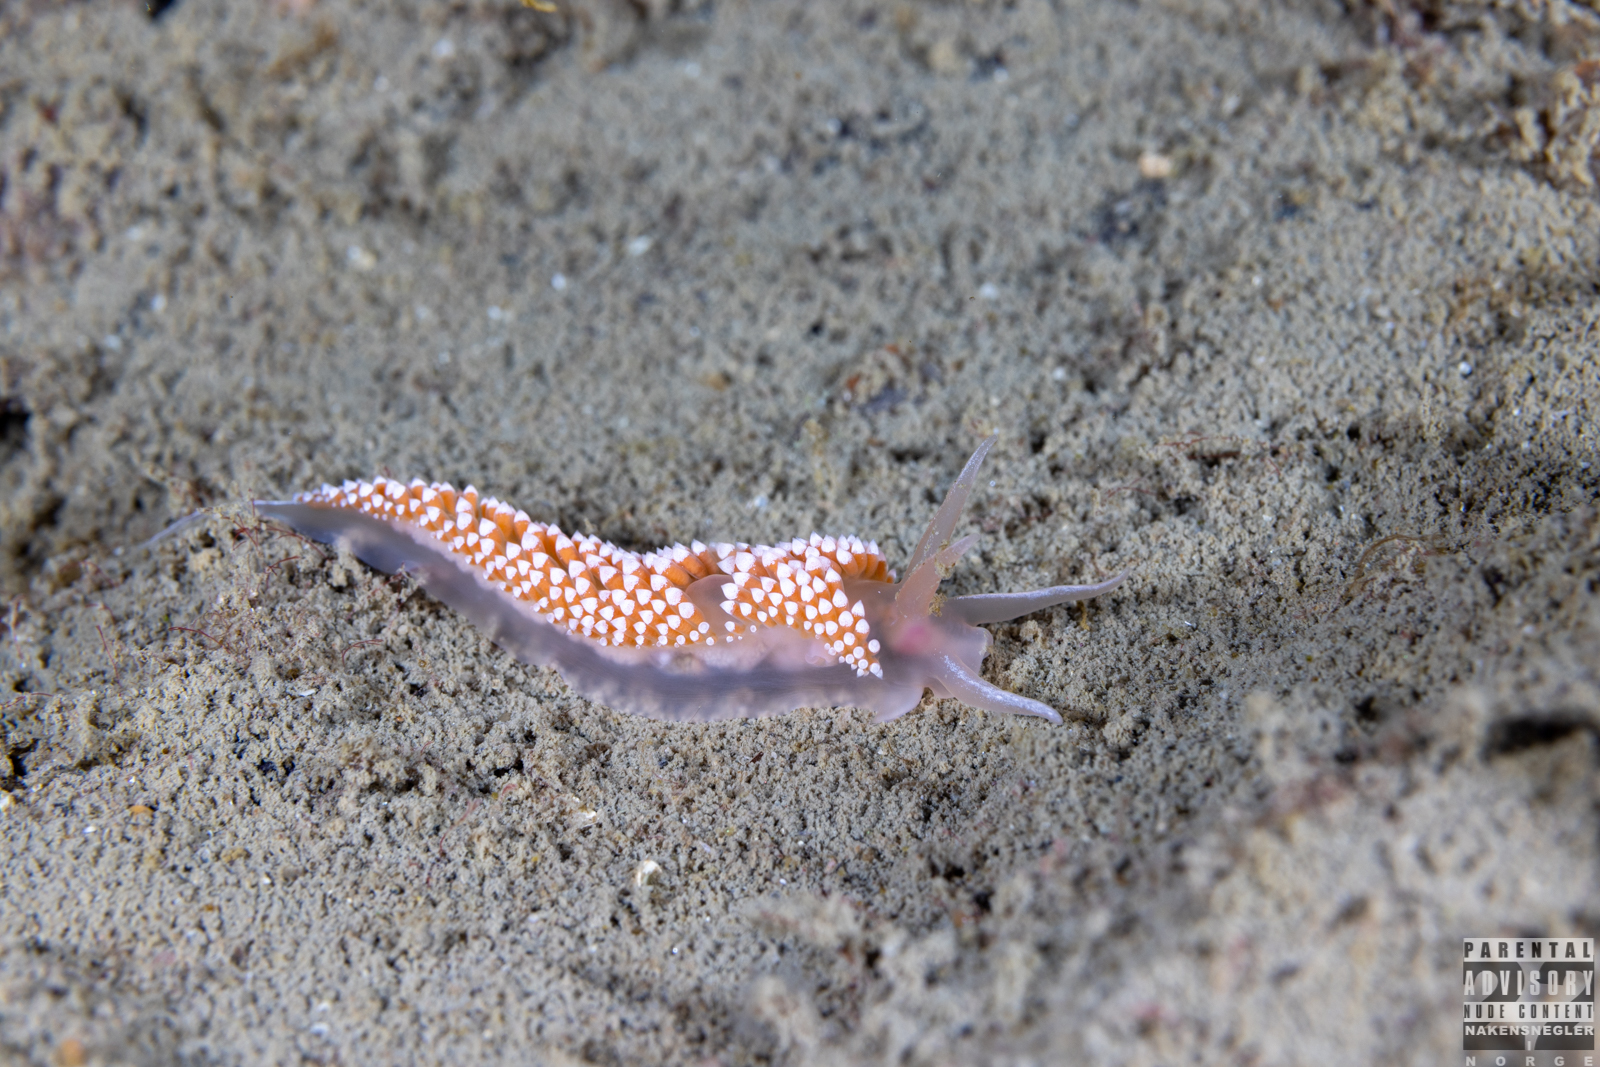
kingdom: Animalia
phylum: Mollusca
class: Gastropoda
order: Nudibranchia
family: Coryphellidae
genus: Coryphella
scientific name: Coryphella verrucosa
